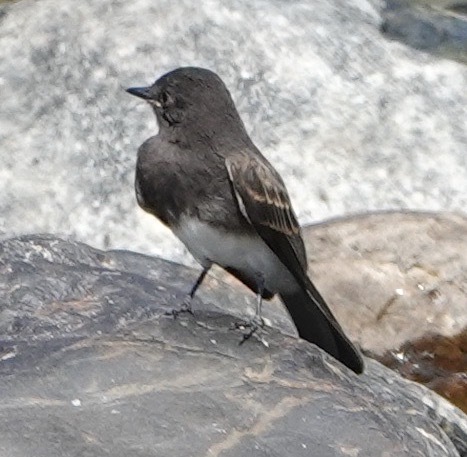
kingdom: Animalia
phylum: Chordata
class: Aves
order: Passeriformes
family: Tyrannidae
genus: Sayornis
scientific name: Sayornis nigricans
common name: Black phoebe
